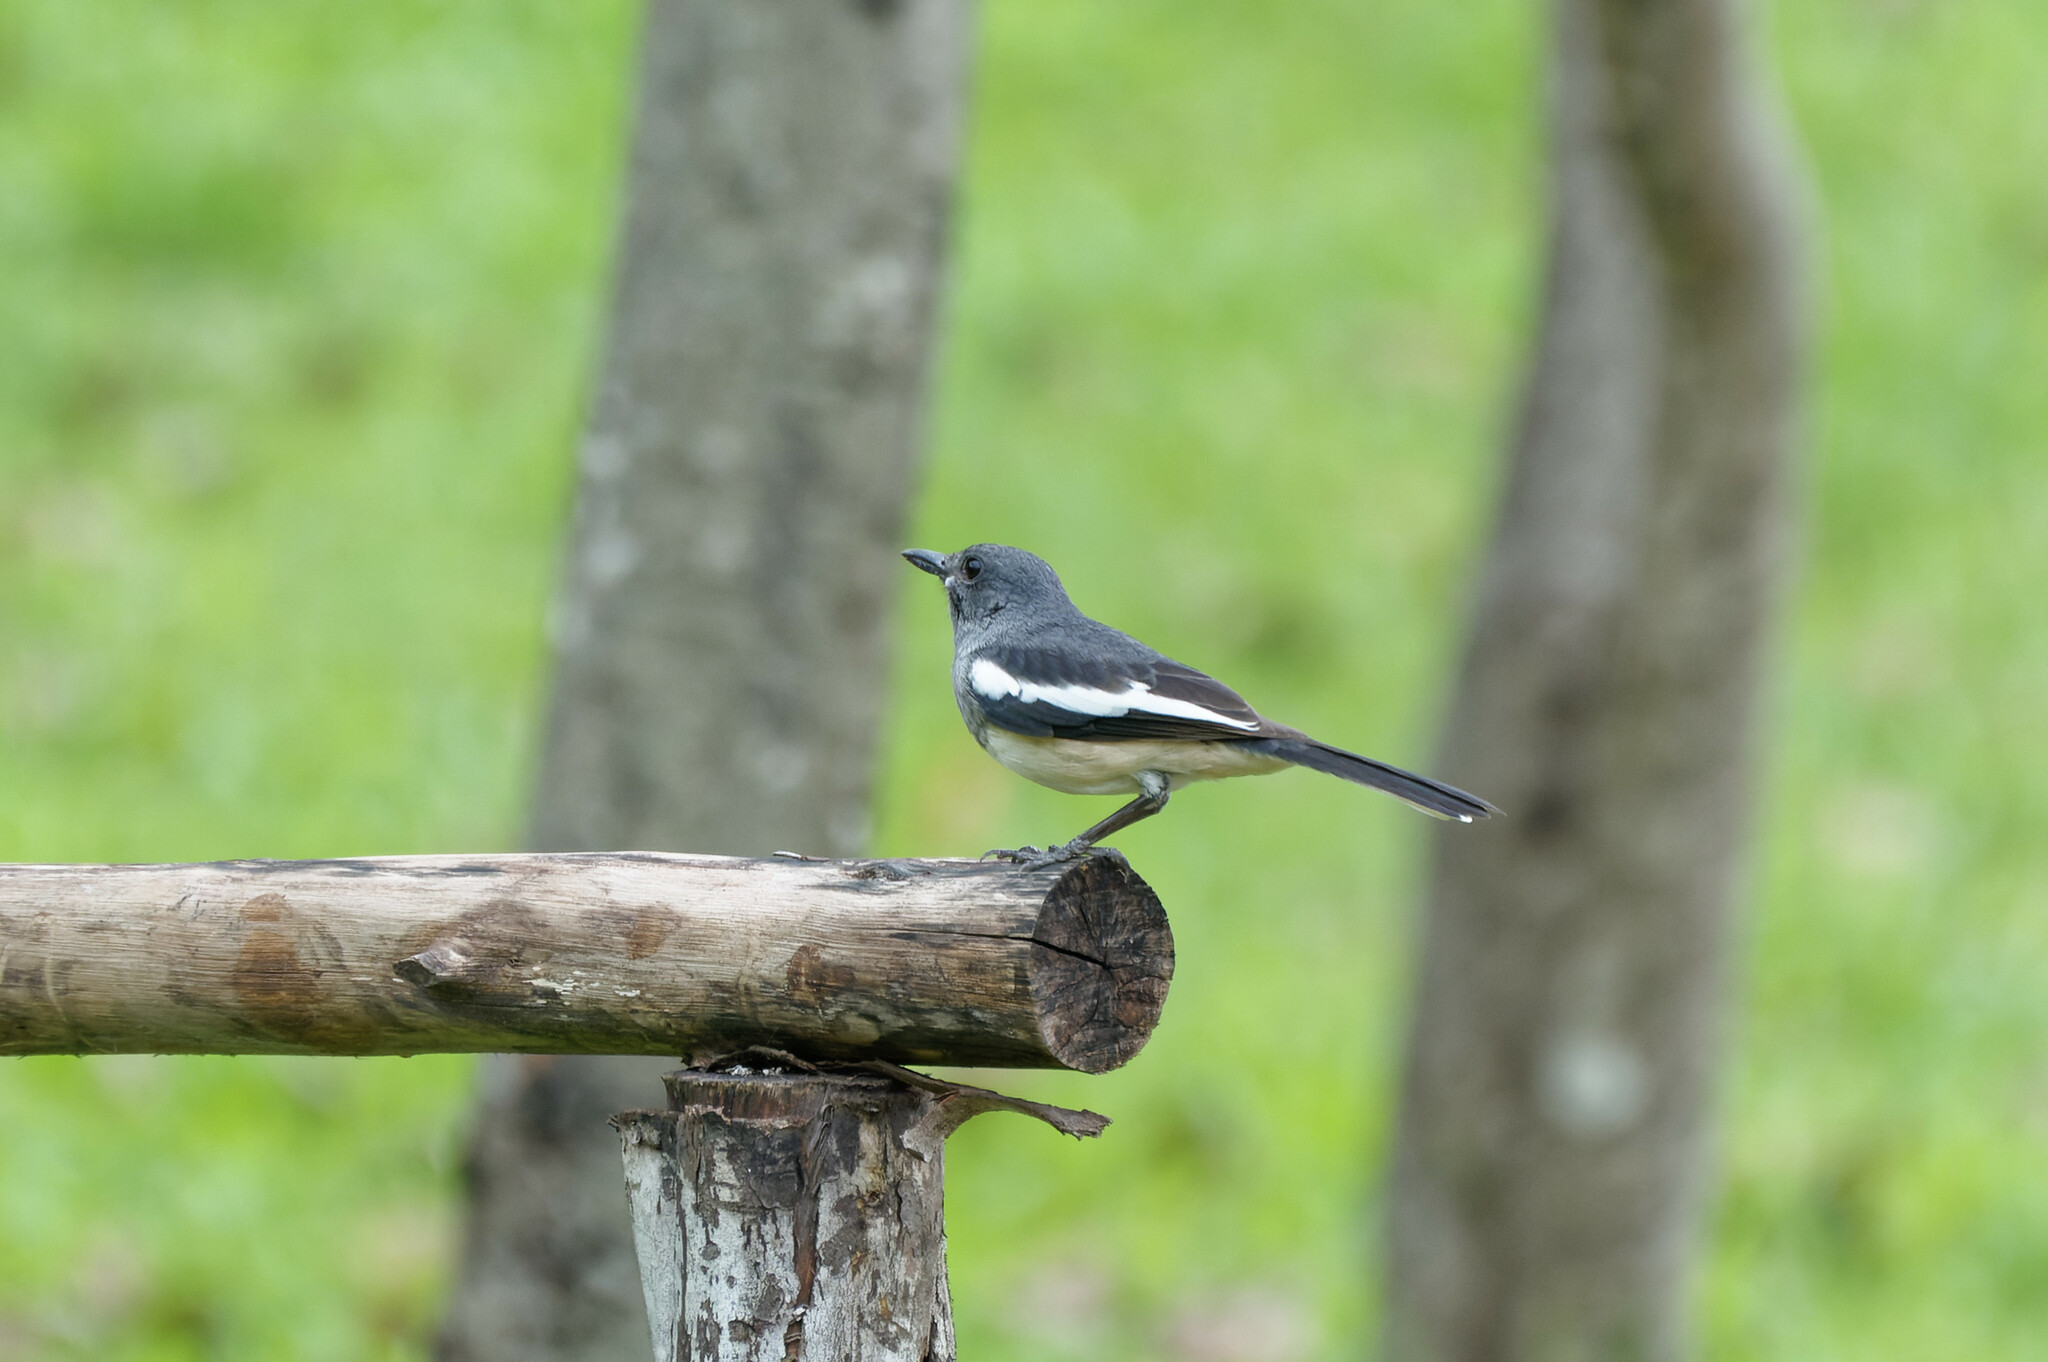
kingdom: Animalia
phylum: Chordata
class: Aves
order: Passeriformes
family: Muscicapidae
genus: Copsychus
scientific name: Copsychus saularis
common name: Oriental magpie-robin
